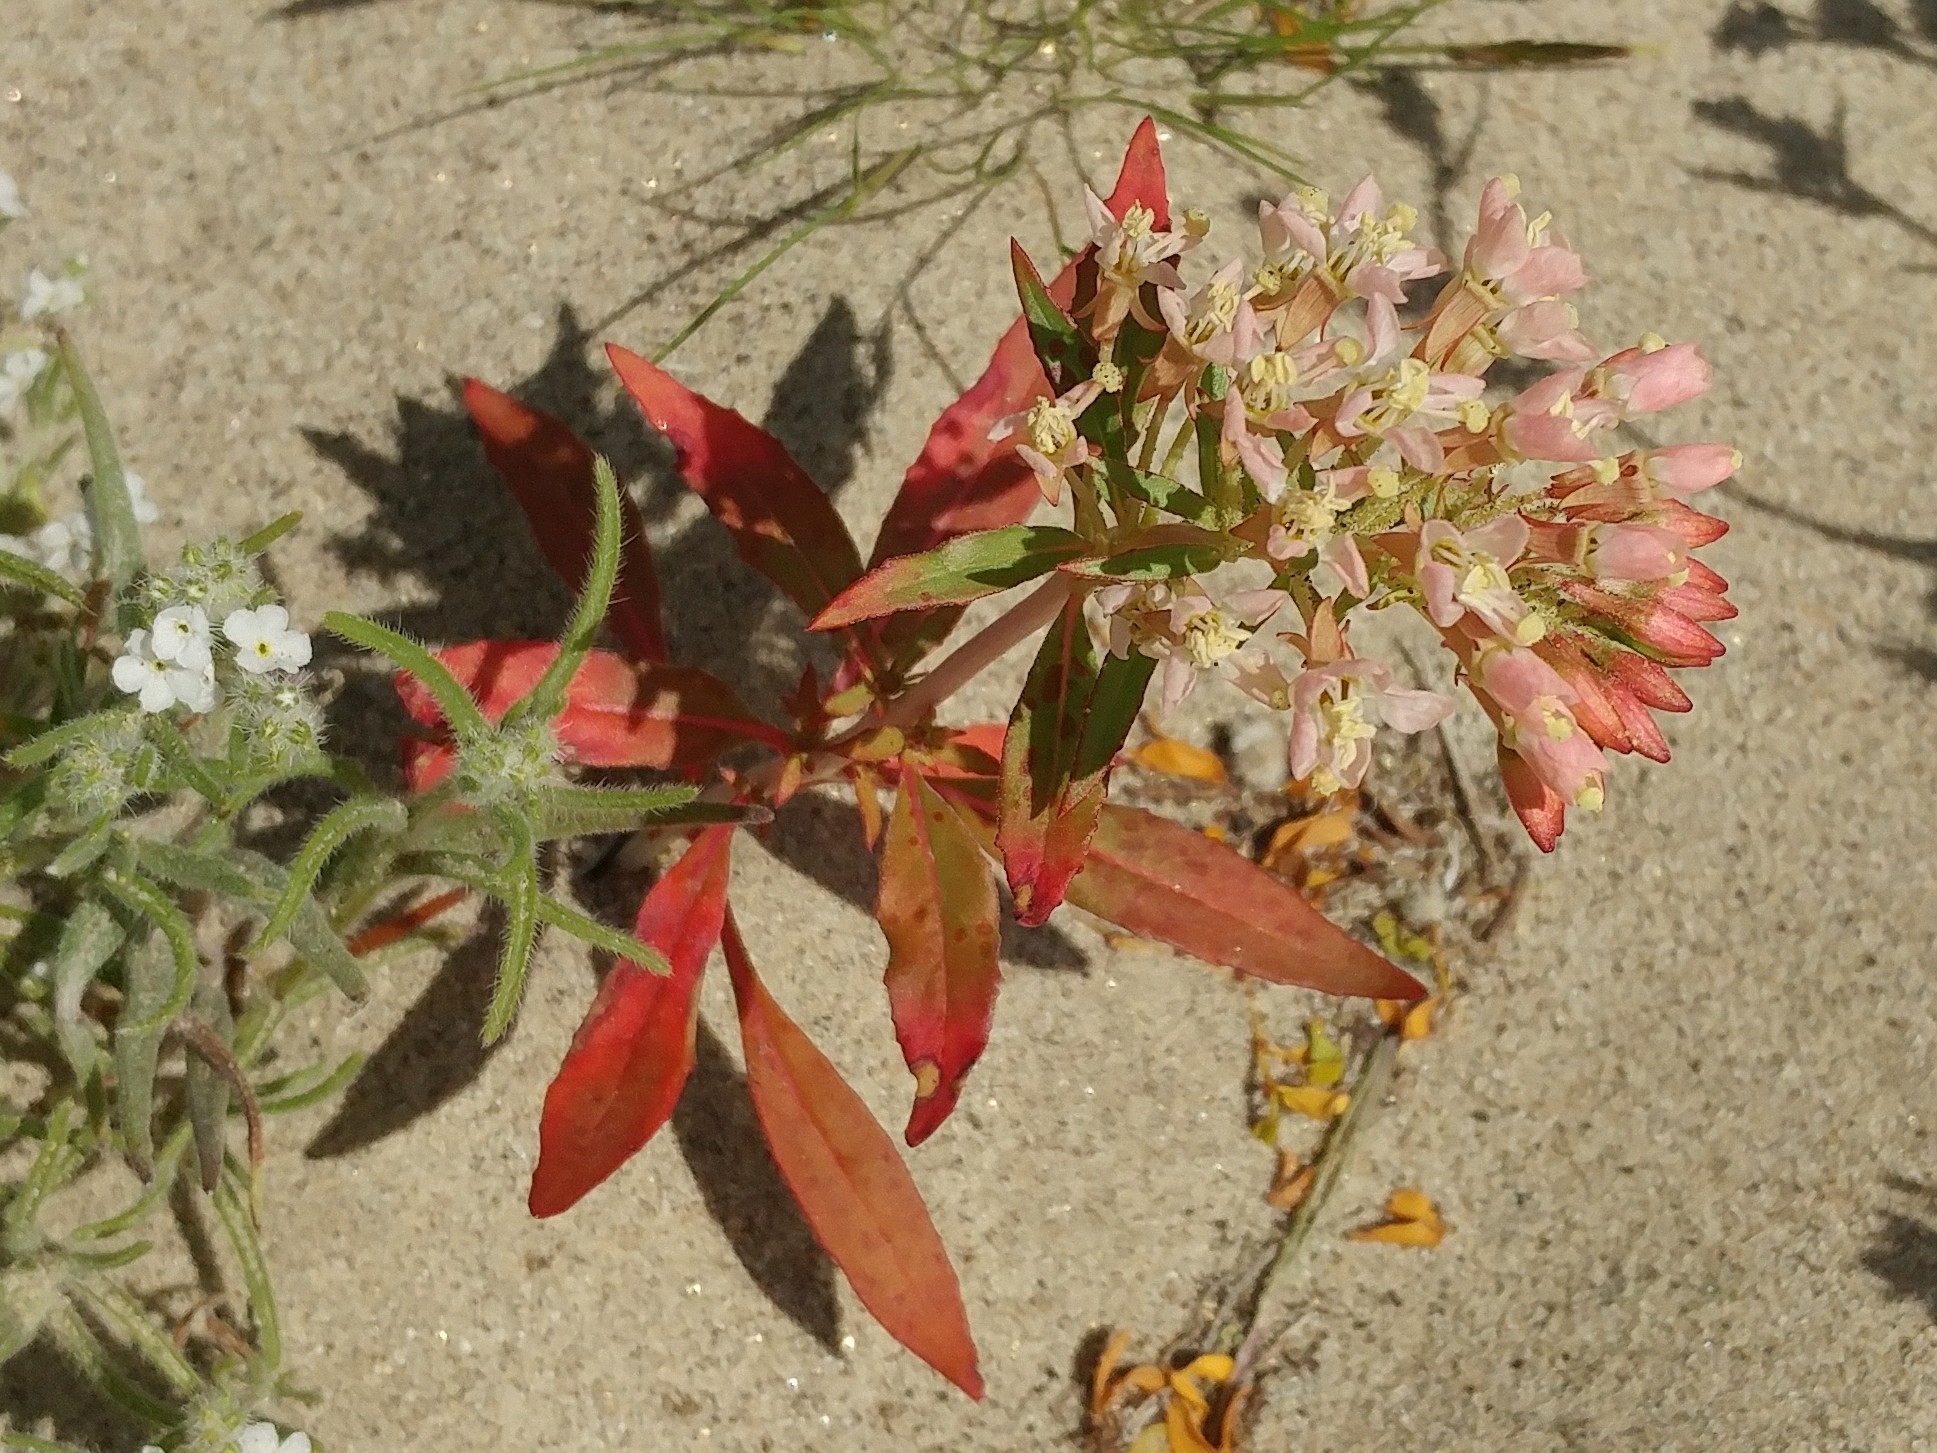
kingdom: Plantae
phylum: Tracheophyta
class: Magnoliopsida
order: Myrtales
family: Onagraceae
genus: Eremothera
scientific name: Eremothera boothii
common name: Booth's evening primrose
